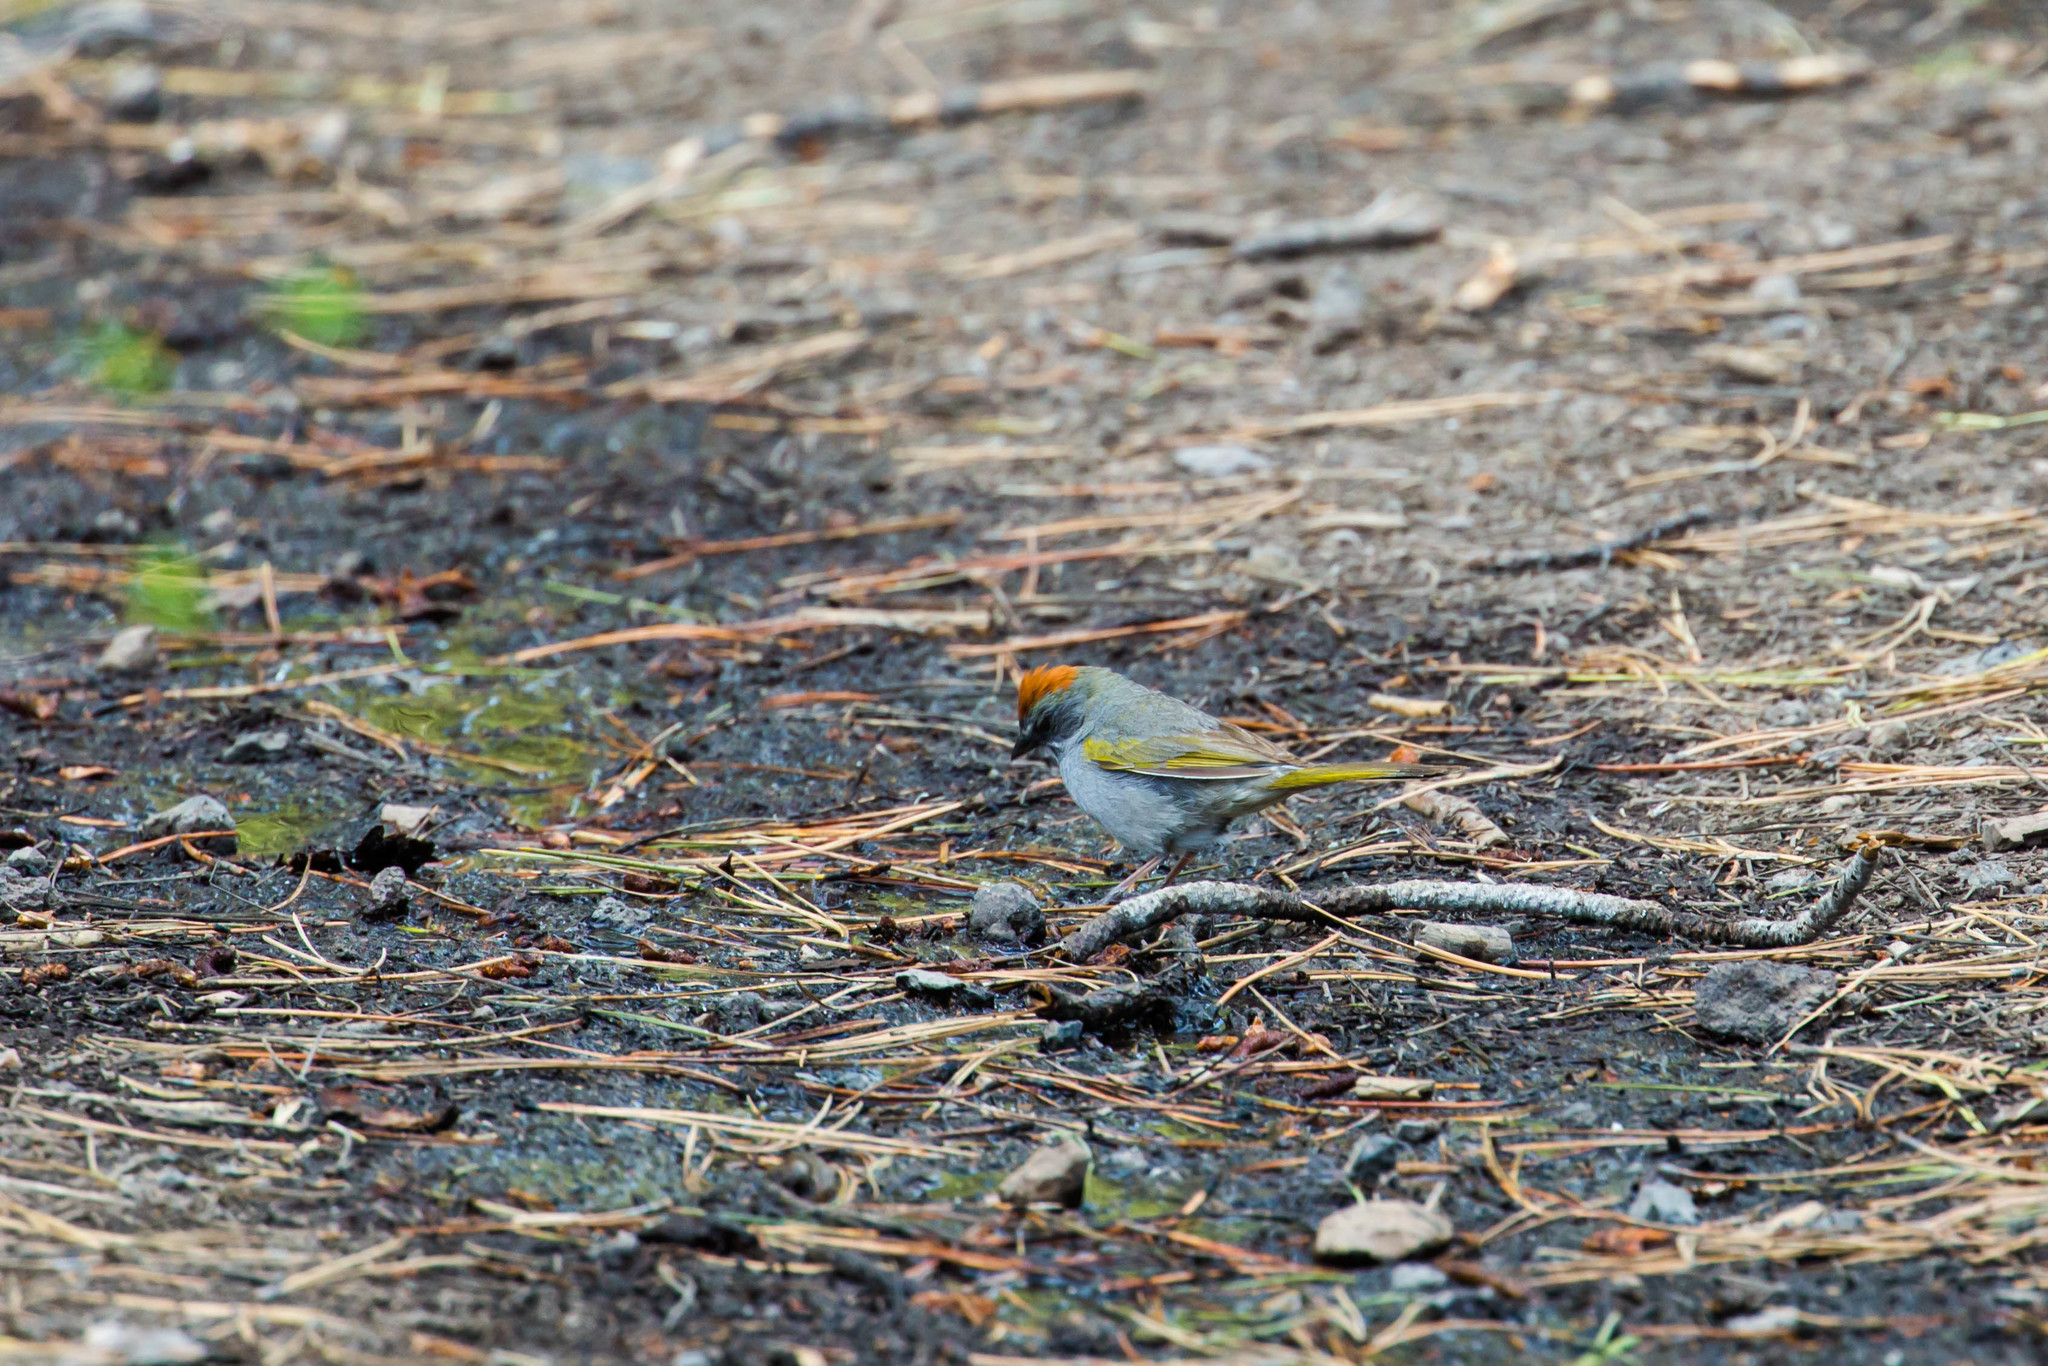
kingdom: Animalia
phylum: Chordata
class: Aves
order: Passeriformes
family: Passerellidae
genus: Pipilo
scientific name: Pipilo chlorurus
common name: Green-tailed towhee
